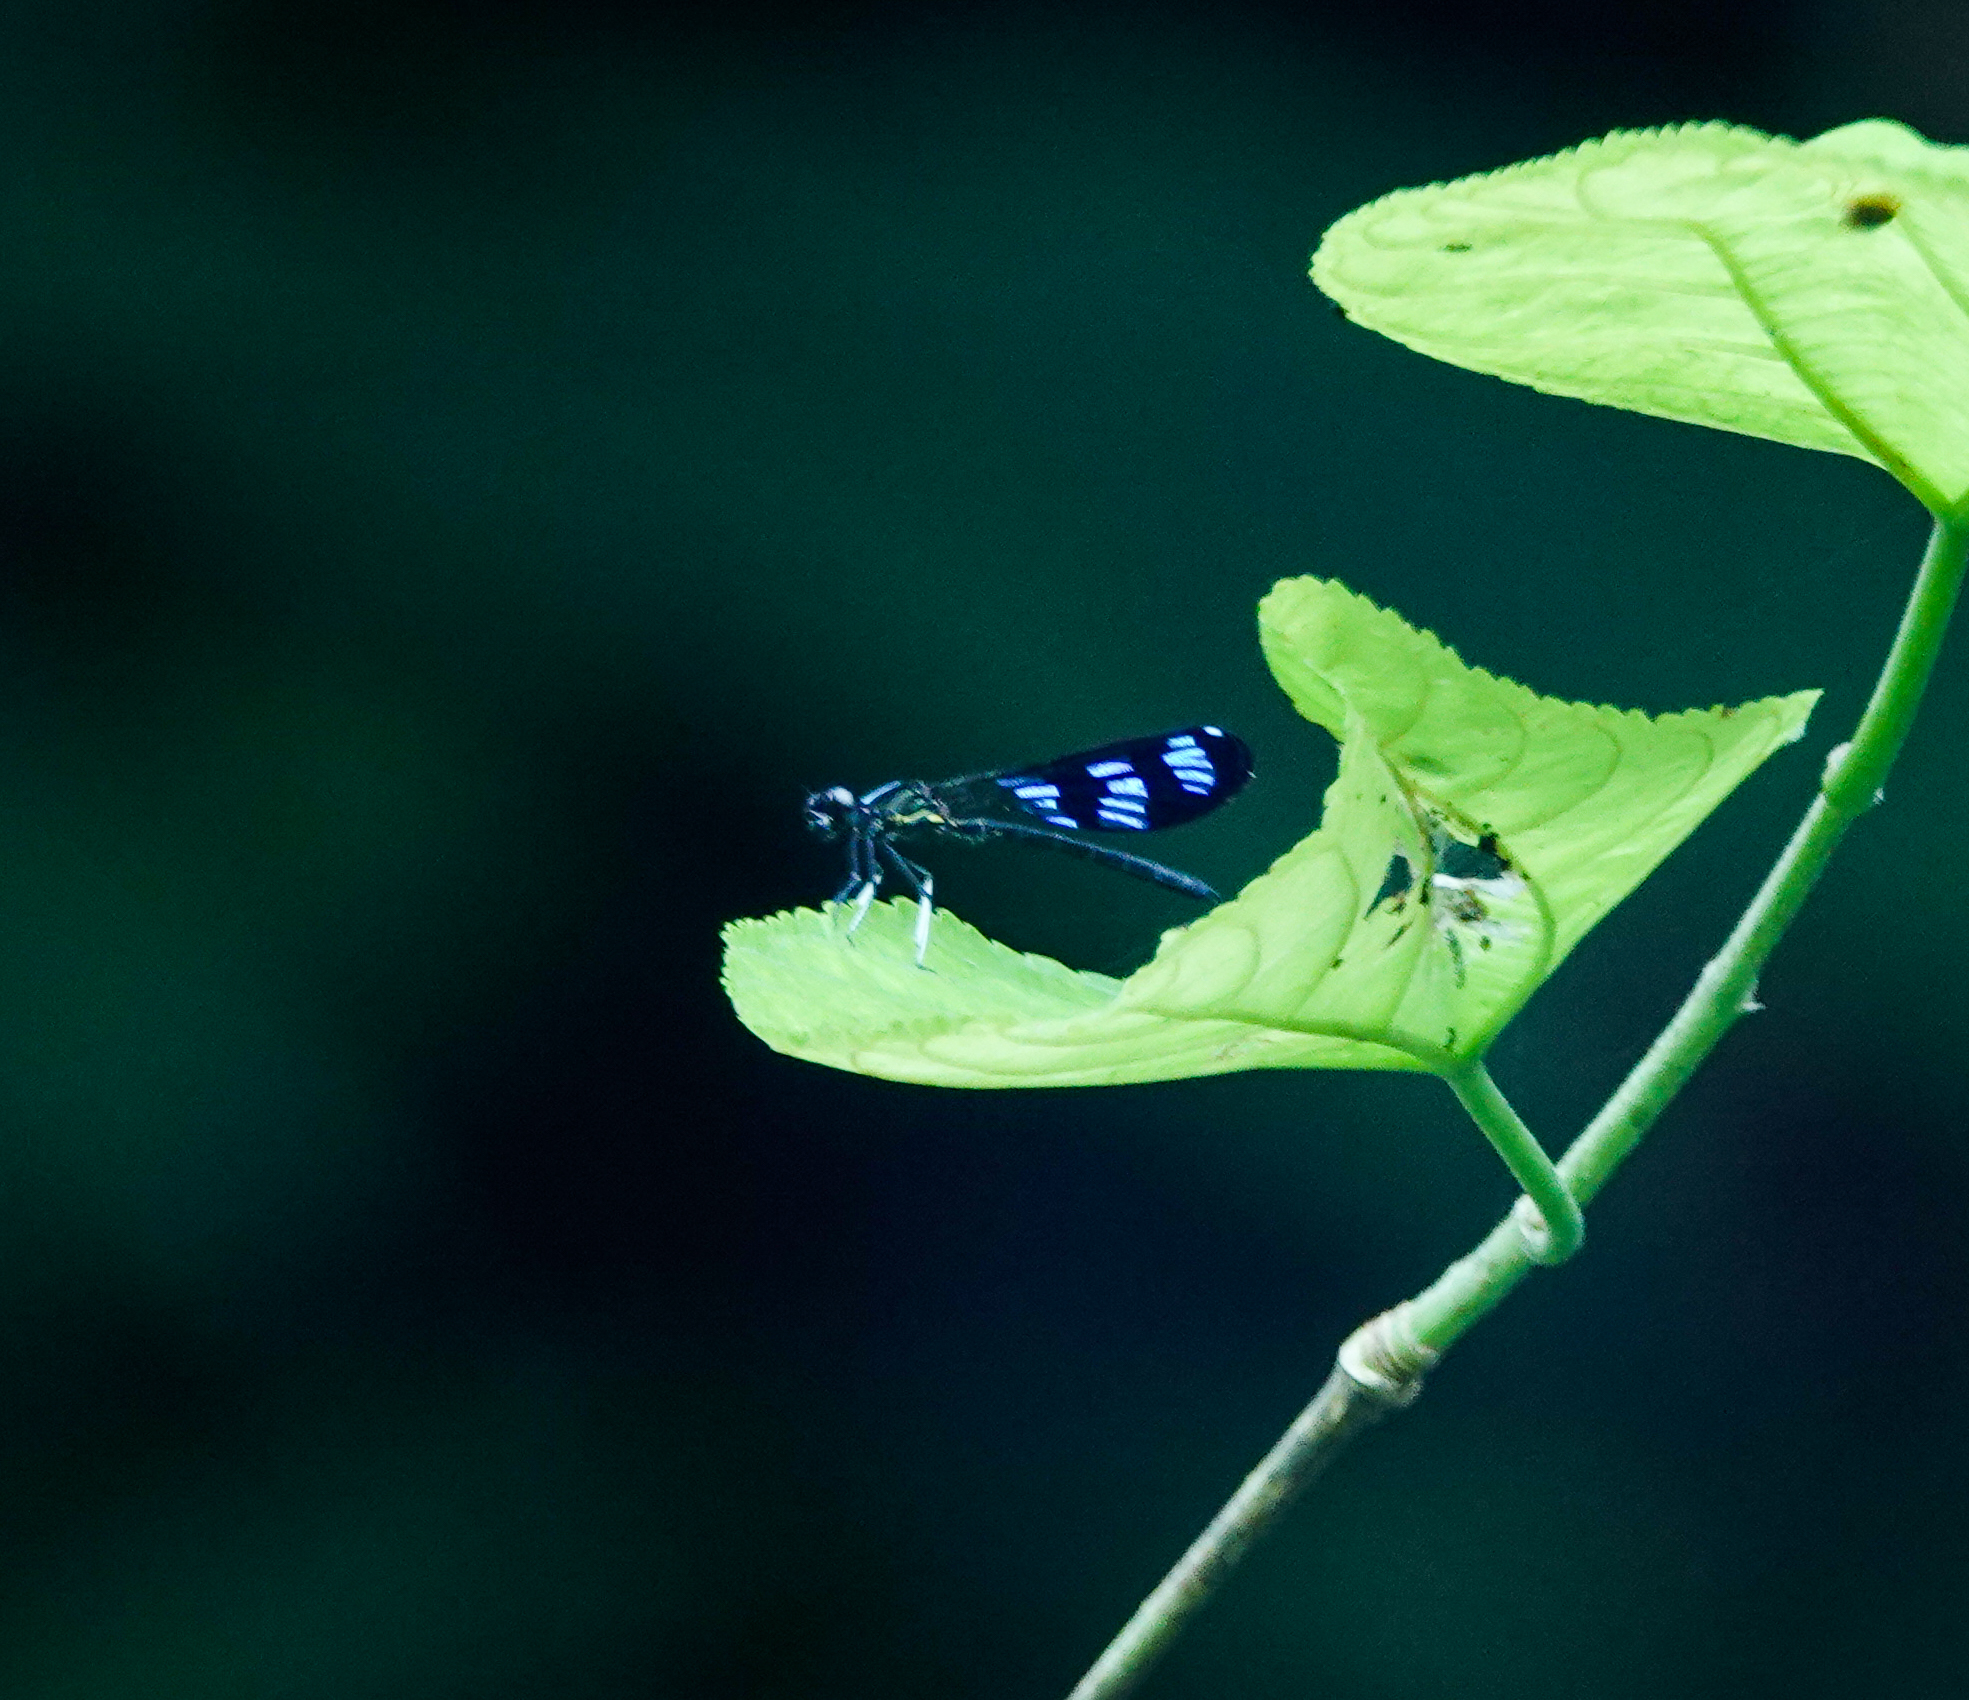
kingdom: Animalia
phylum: Arthropoda
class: Insecta
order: Odonata
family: Chlorocyphidae
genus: Aristocypha
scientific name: Aristocypha cuneata
